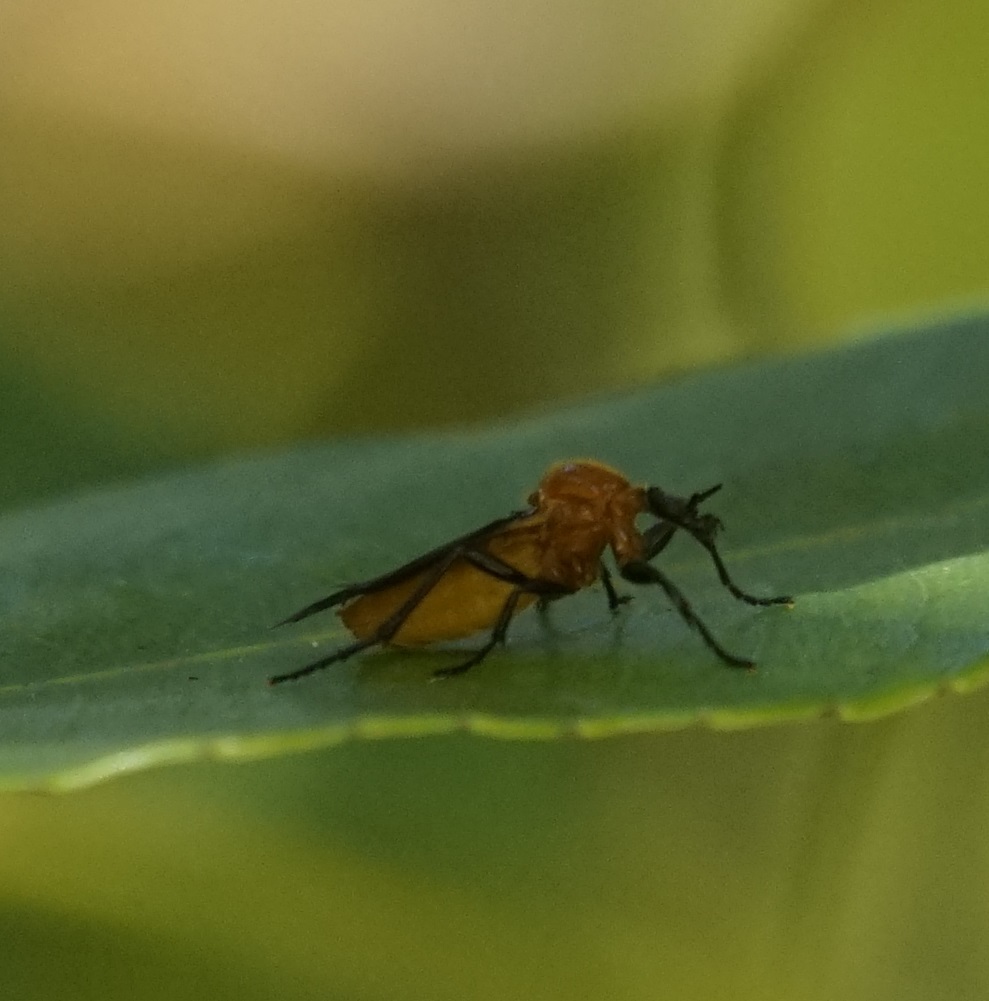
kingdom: Animalia
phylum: Arthropoda
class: Insecta
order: Diptera
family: Bibionidae
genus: Bibio
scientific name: Bibio imitator
